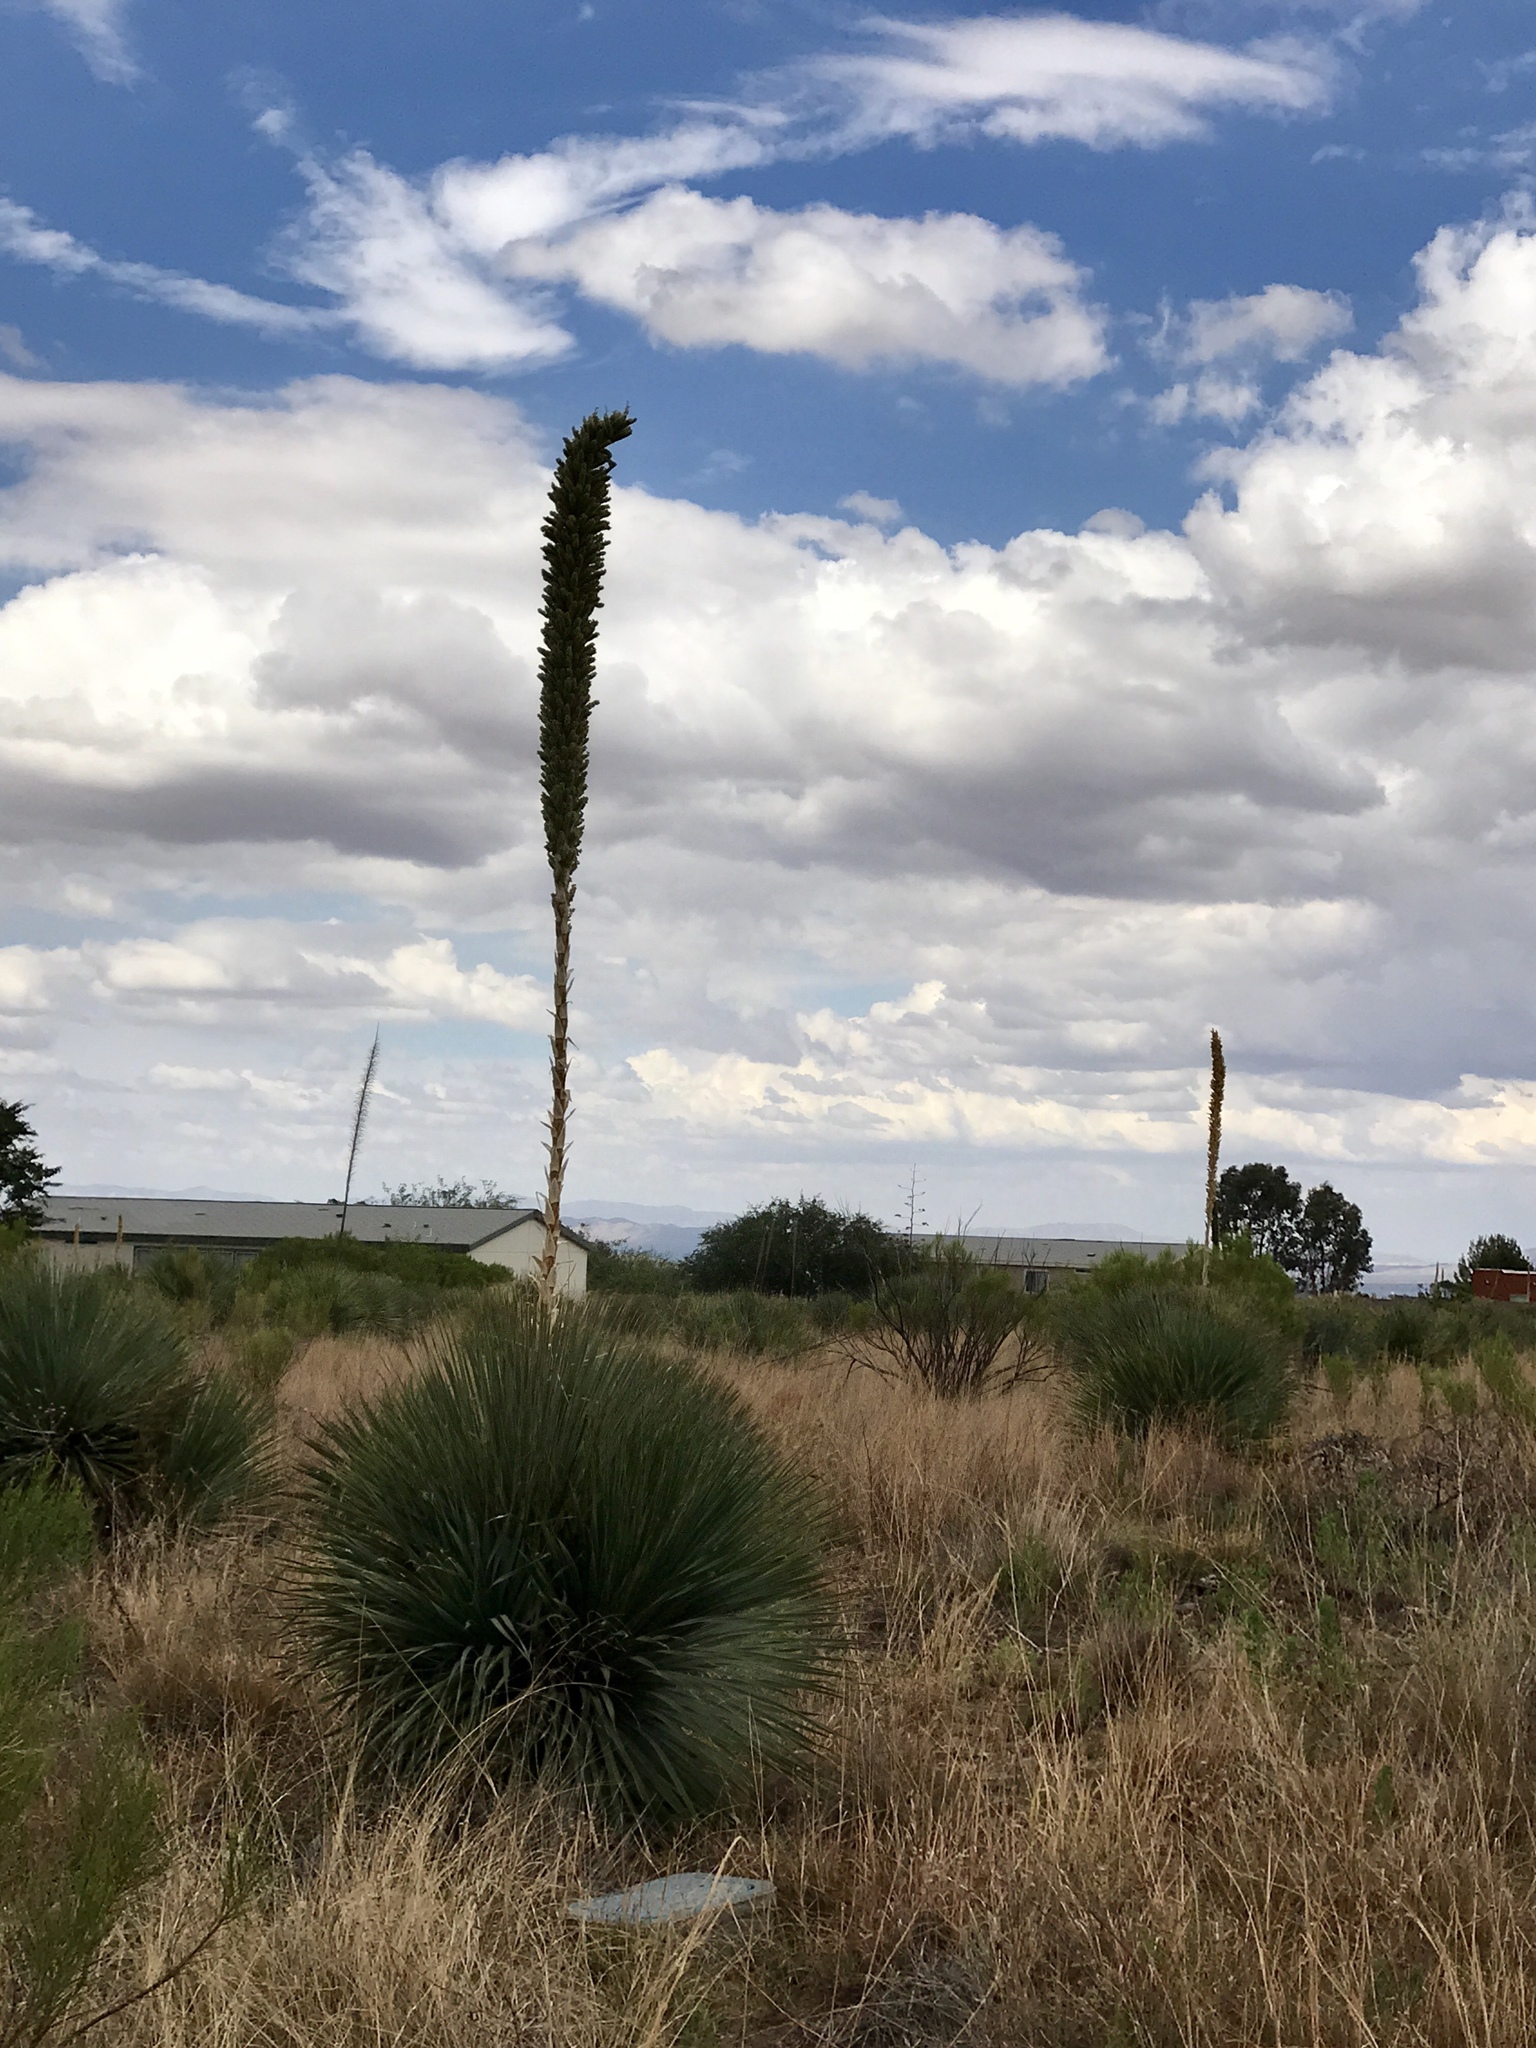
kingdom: Plantae
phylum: Tracheophyta
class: Liliopsida
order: Asparagales
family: Asparagaceae
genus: Dasylirion
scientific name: Dasylirion wheeleri
